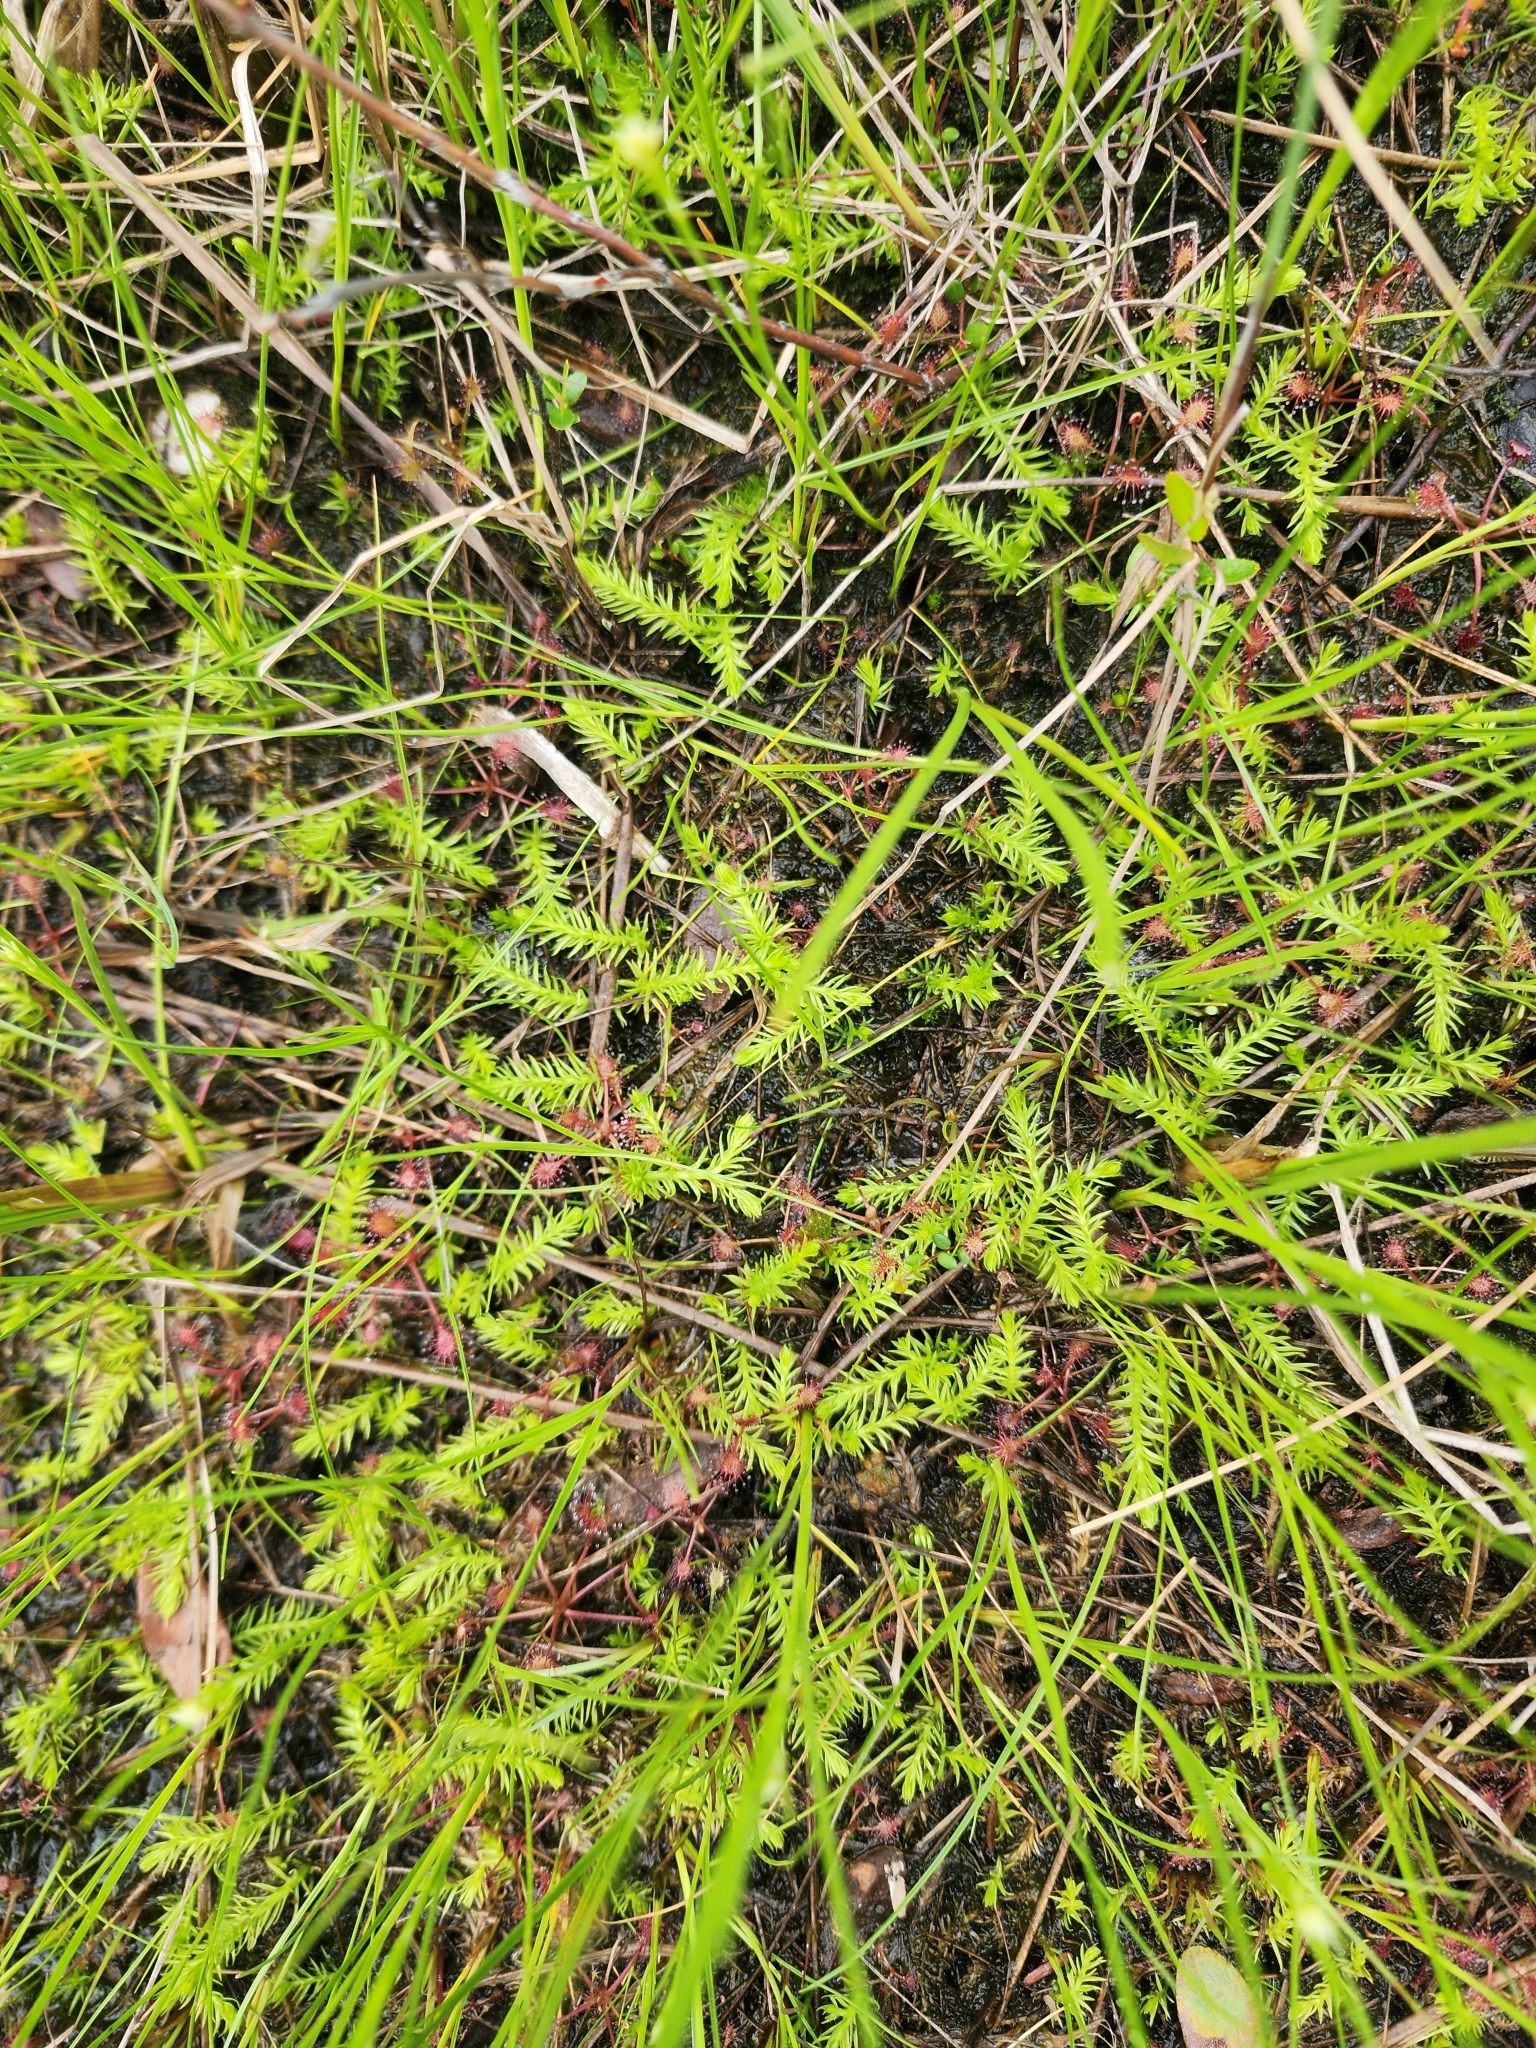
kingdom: Plantae
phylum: Tracheophyta
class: Lycopodiopsida
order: Lycopodiales
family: Lycopodiaceae
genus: Lycopodiella
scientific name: Lycopodiella inundata
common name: Marsh clubmoss
